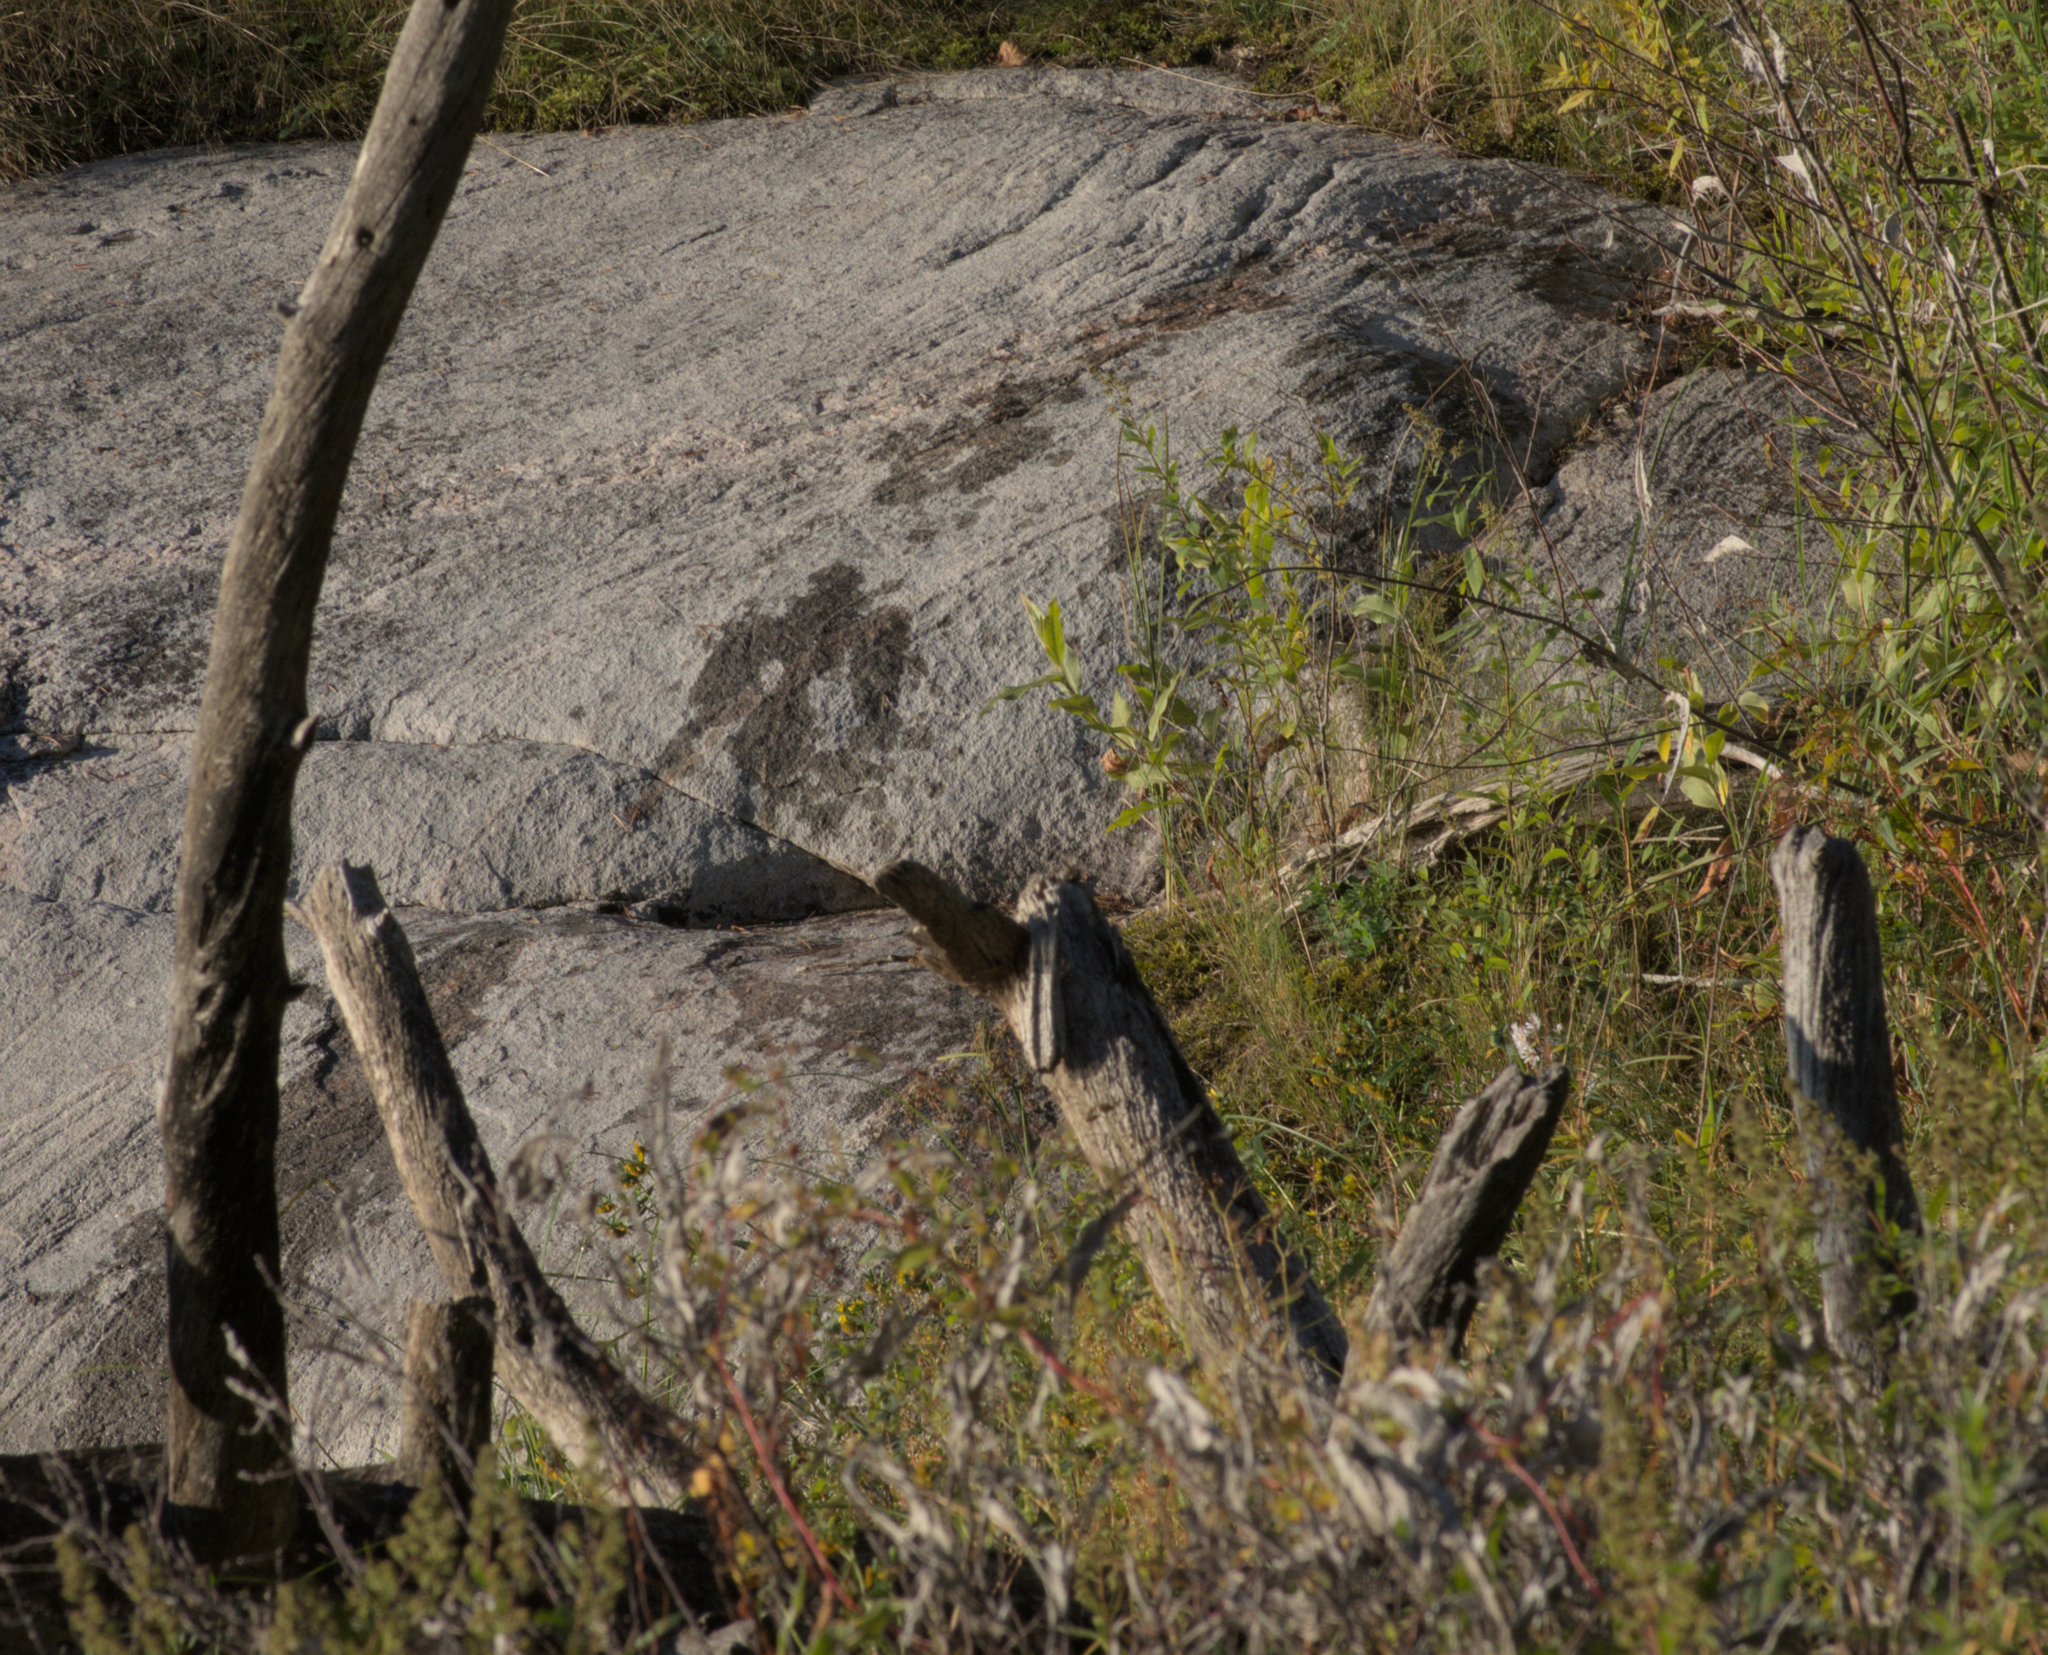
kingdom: Animalia
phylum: Chordata
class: Mammalia
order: Carnivora
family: Mustelidae
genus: Lontra
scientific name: Lontra canadensis
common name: North american river otter
